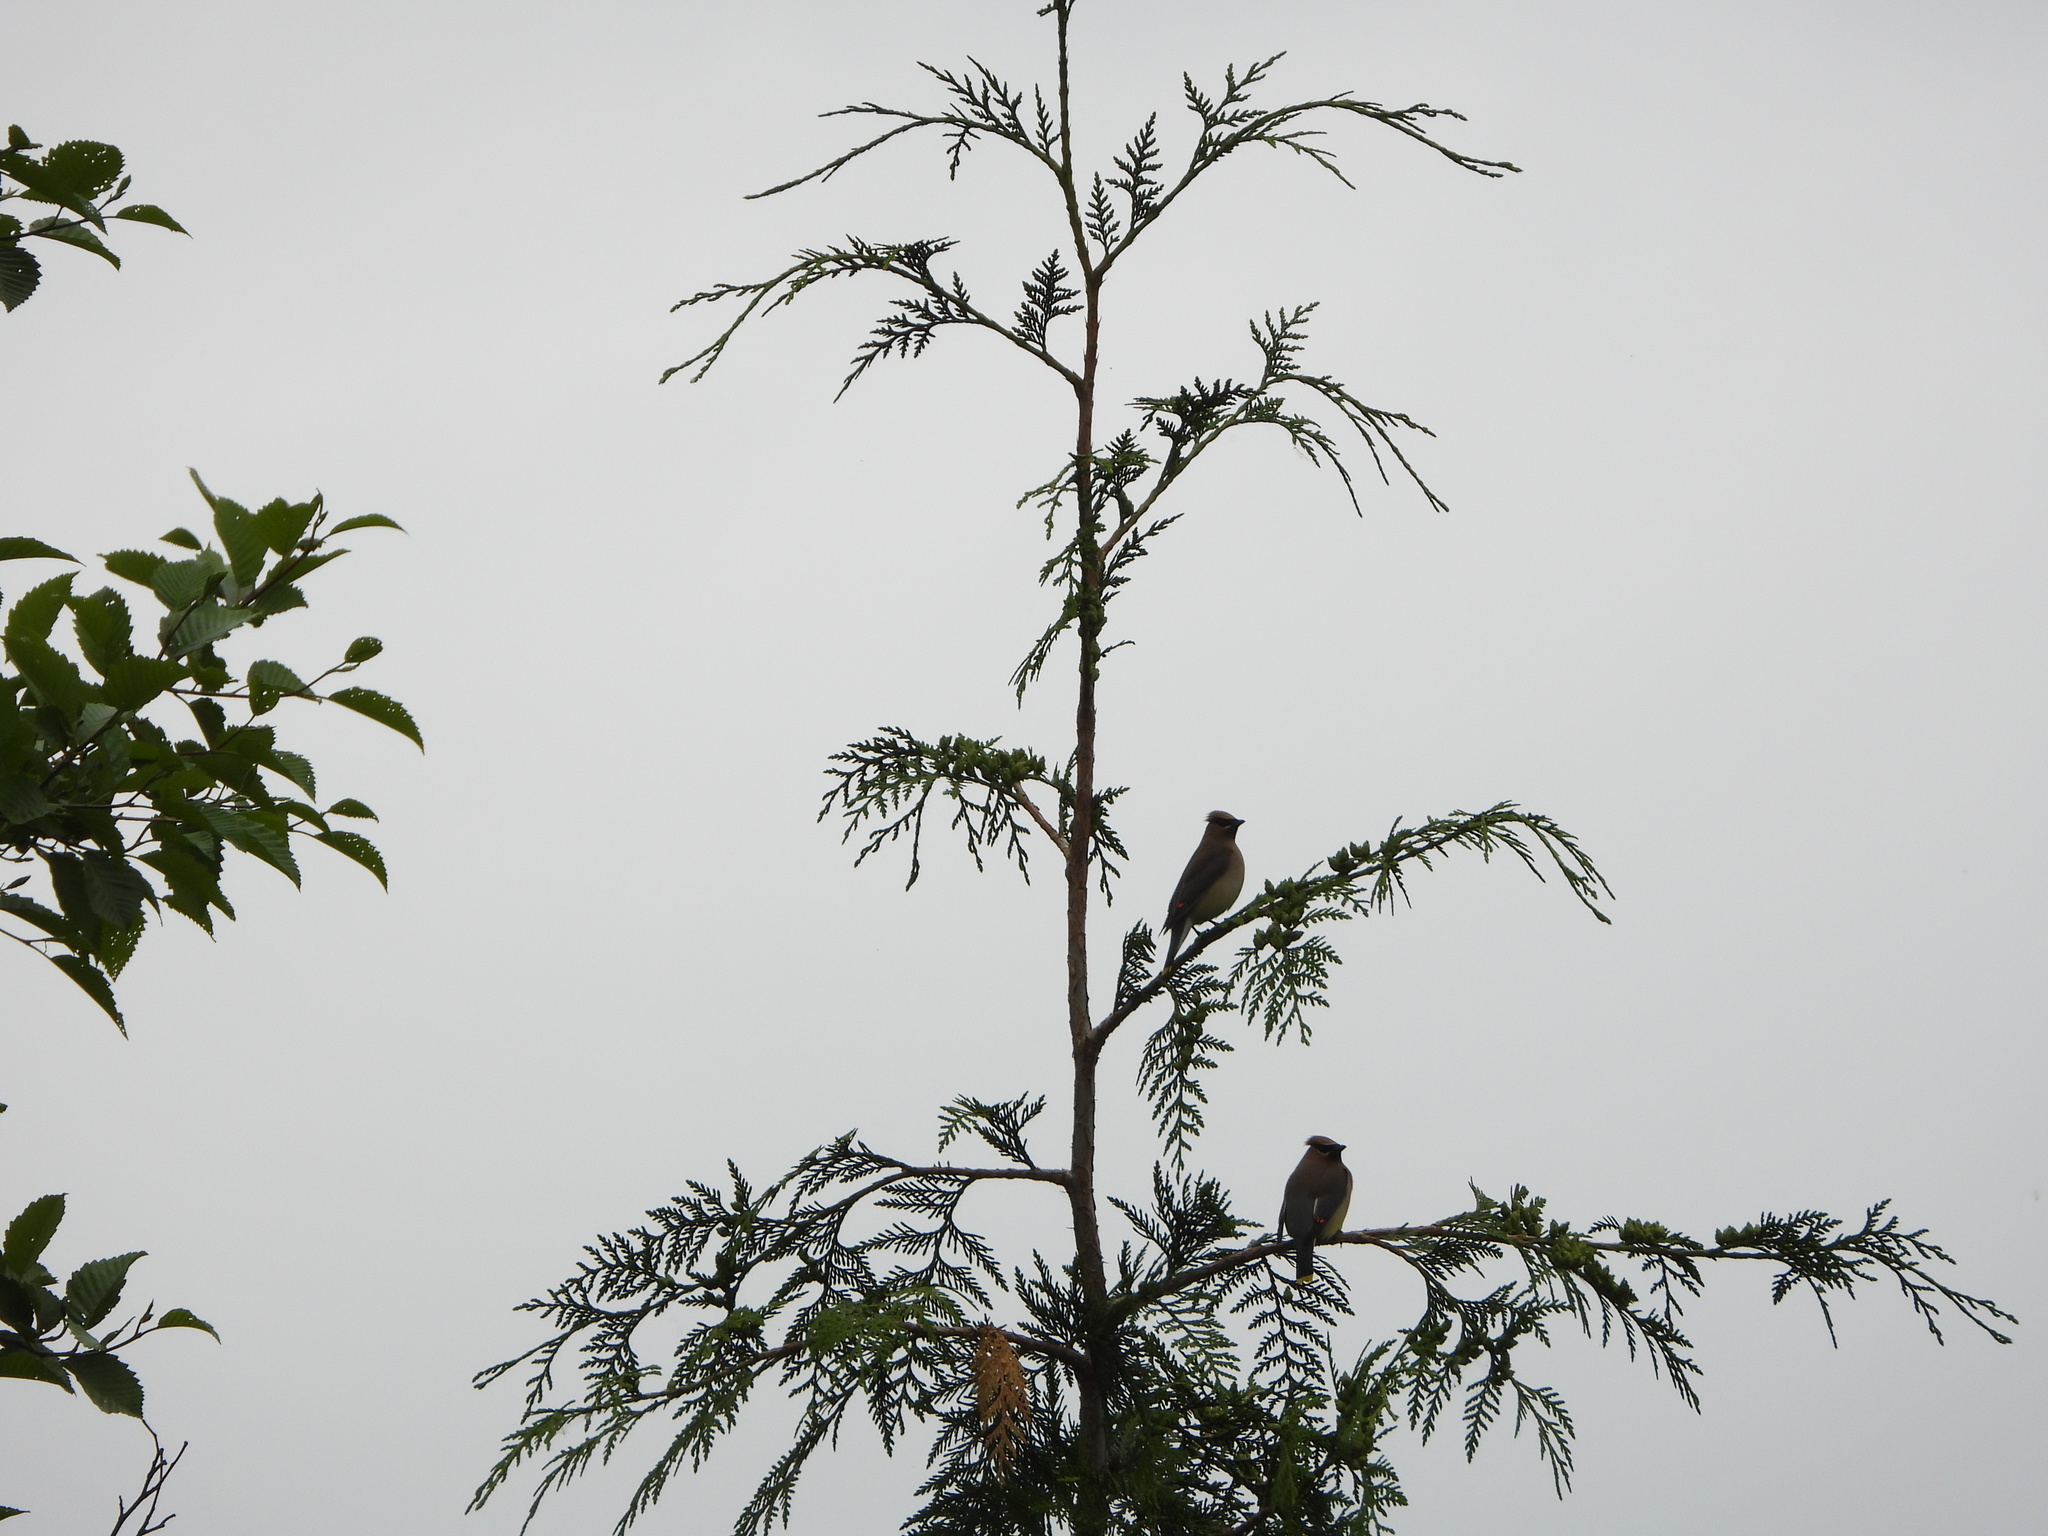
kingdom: Animalia
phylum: Chordata
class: Aves
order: Passeriformes
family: Bombycillidae
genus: Bombycilla
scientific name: Bombycilla cedrorum
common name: Cedar waxwing
